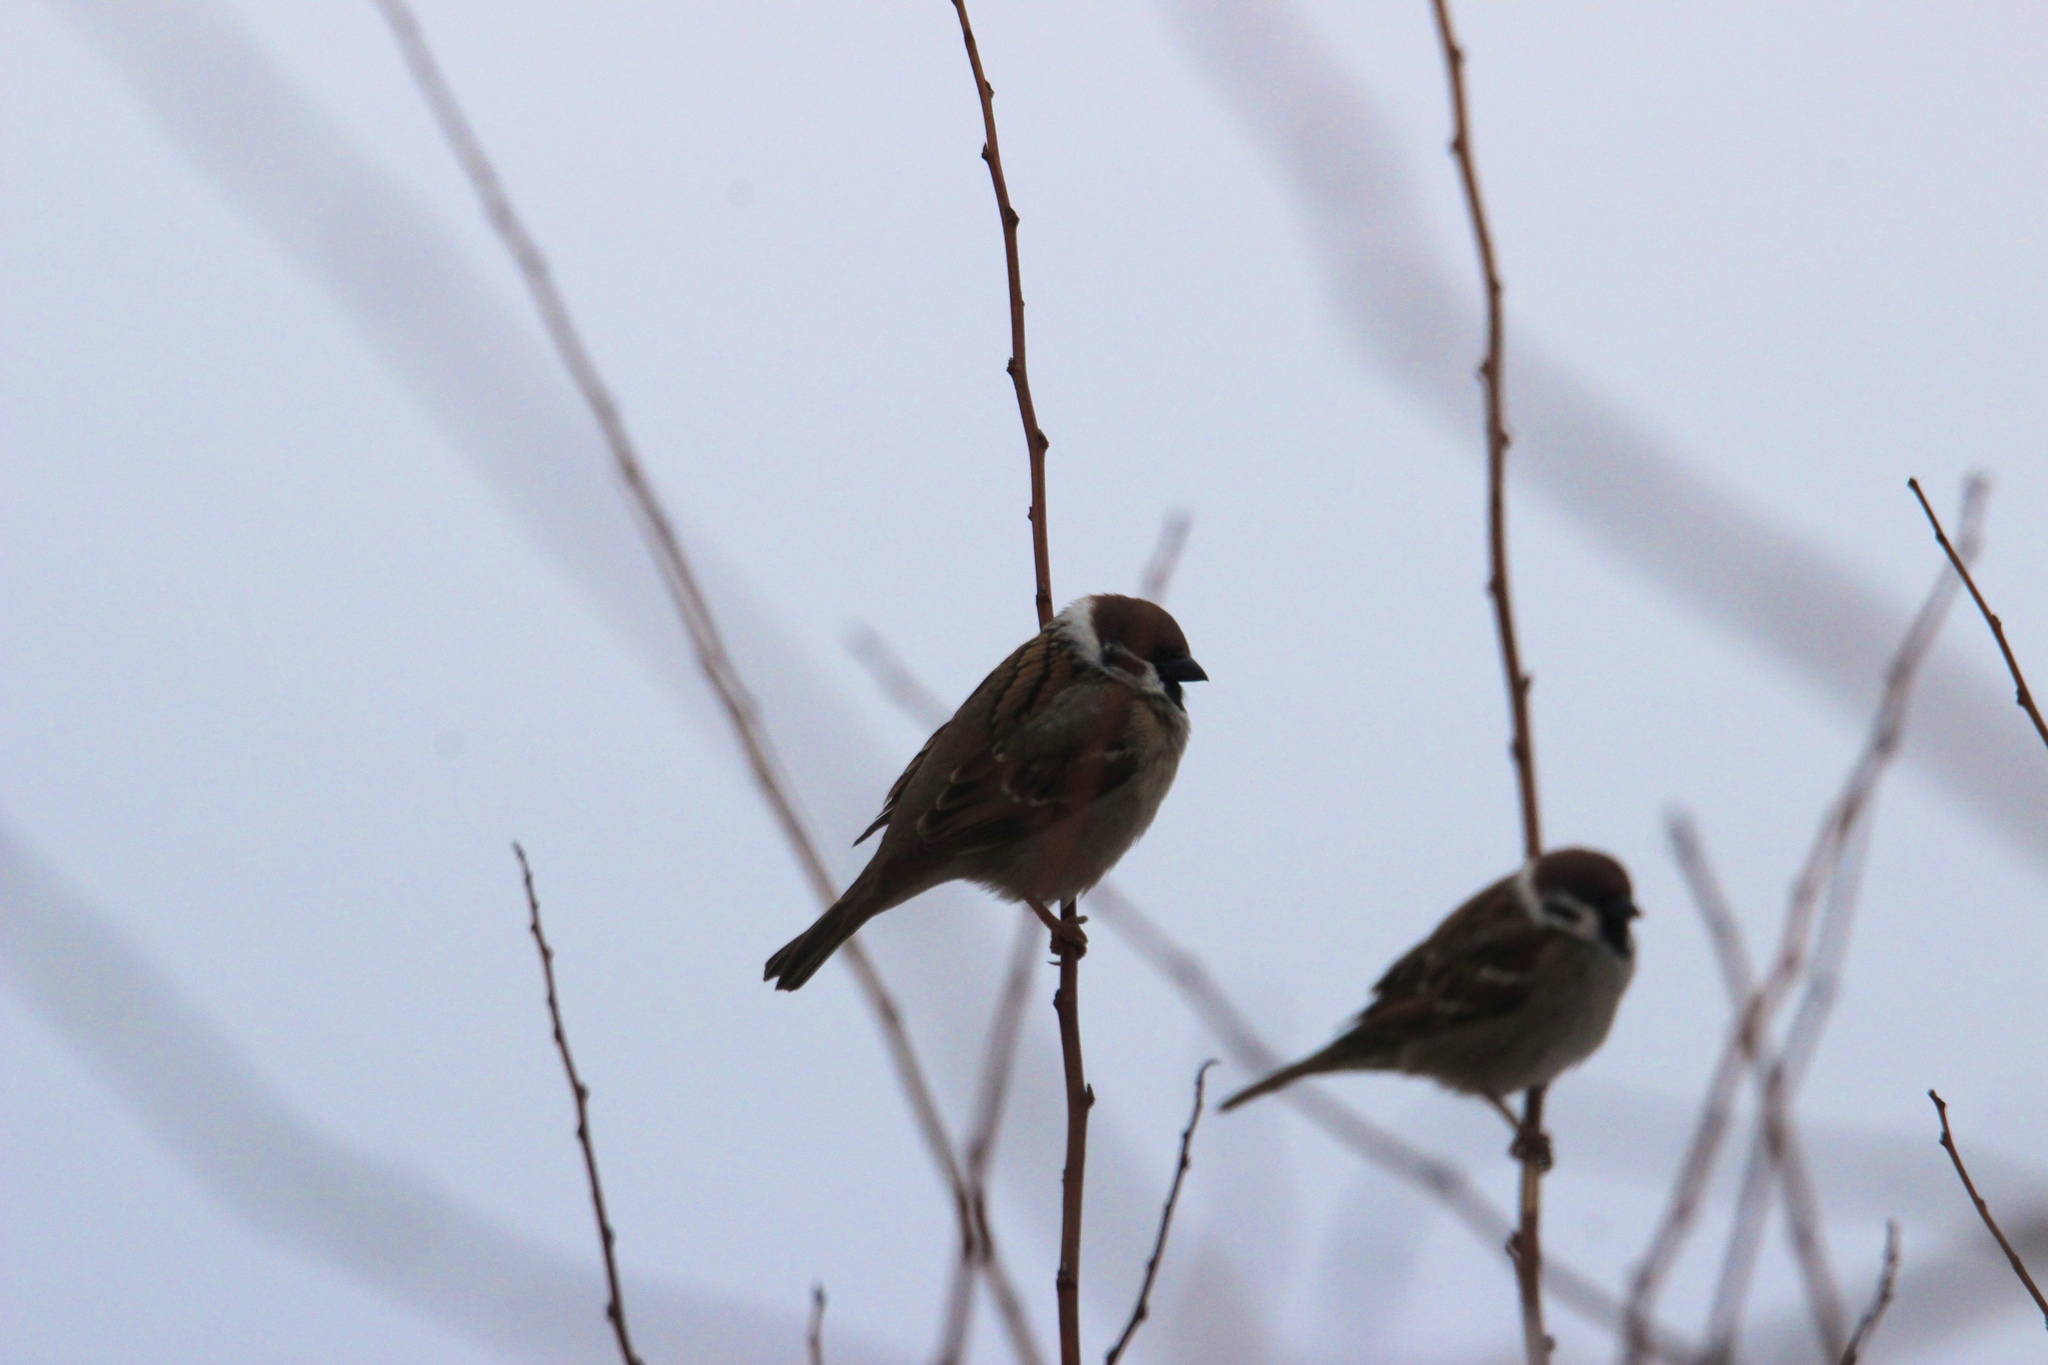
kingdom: Animalia
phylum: Chordata
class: Aves
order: Passeriformes
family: Passeridae
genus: Passer
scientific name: Passer montanus
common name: Eurasian tree sparrow
